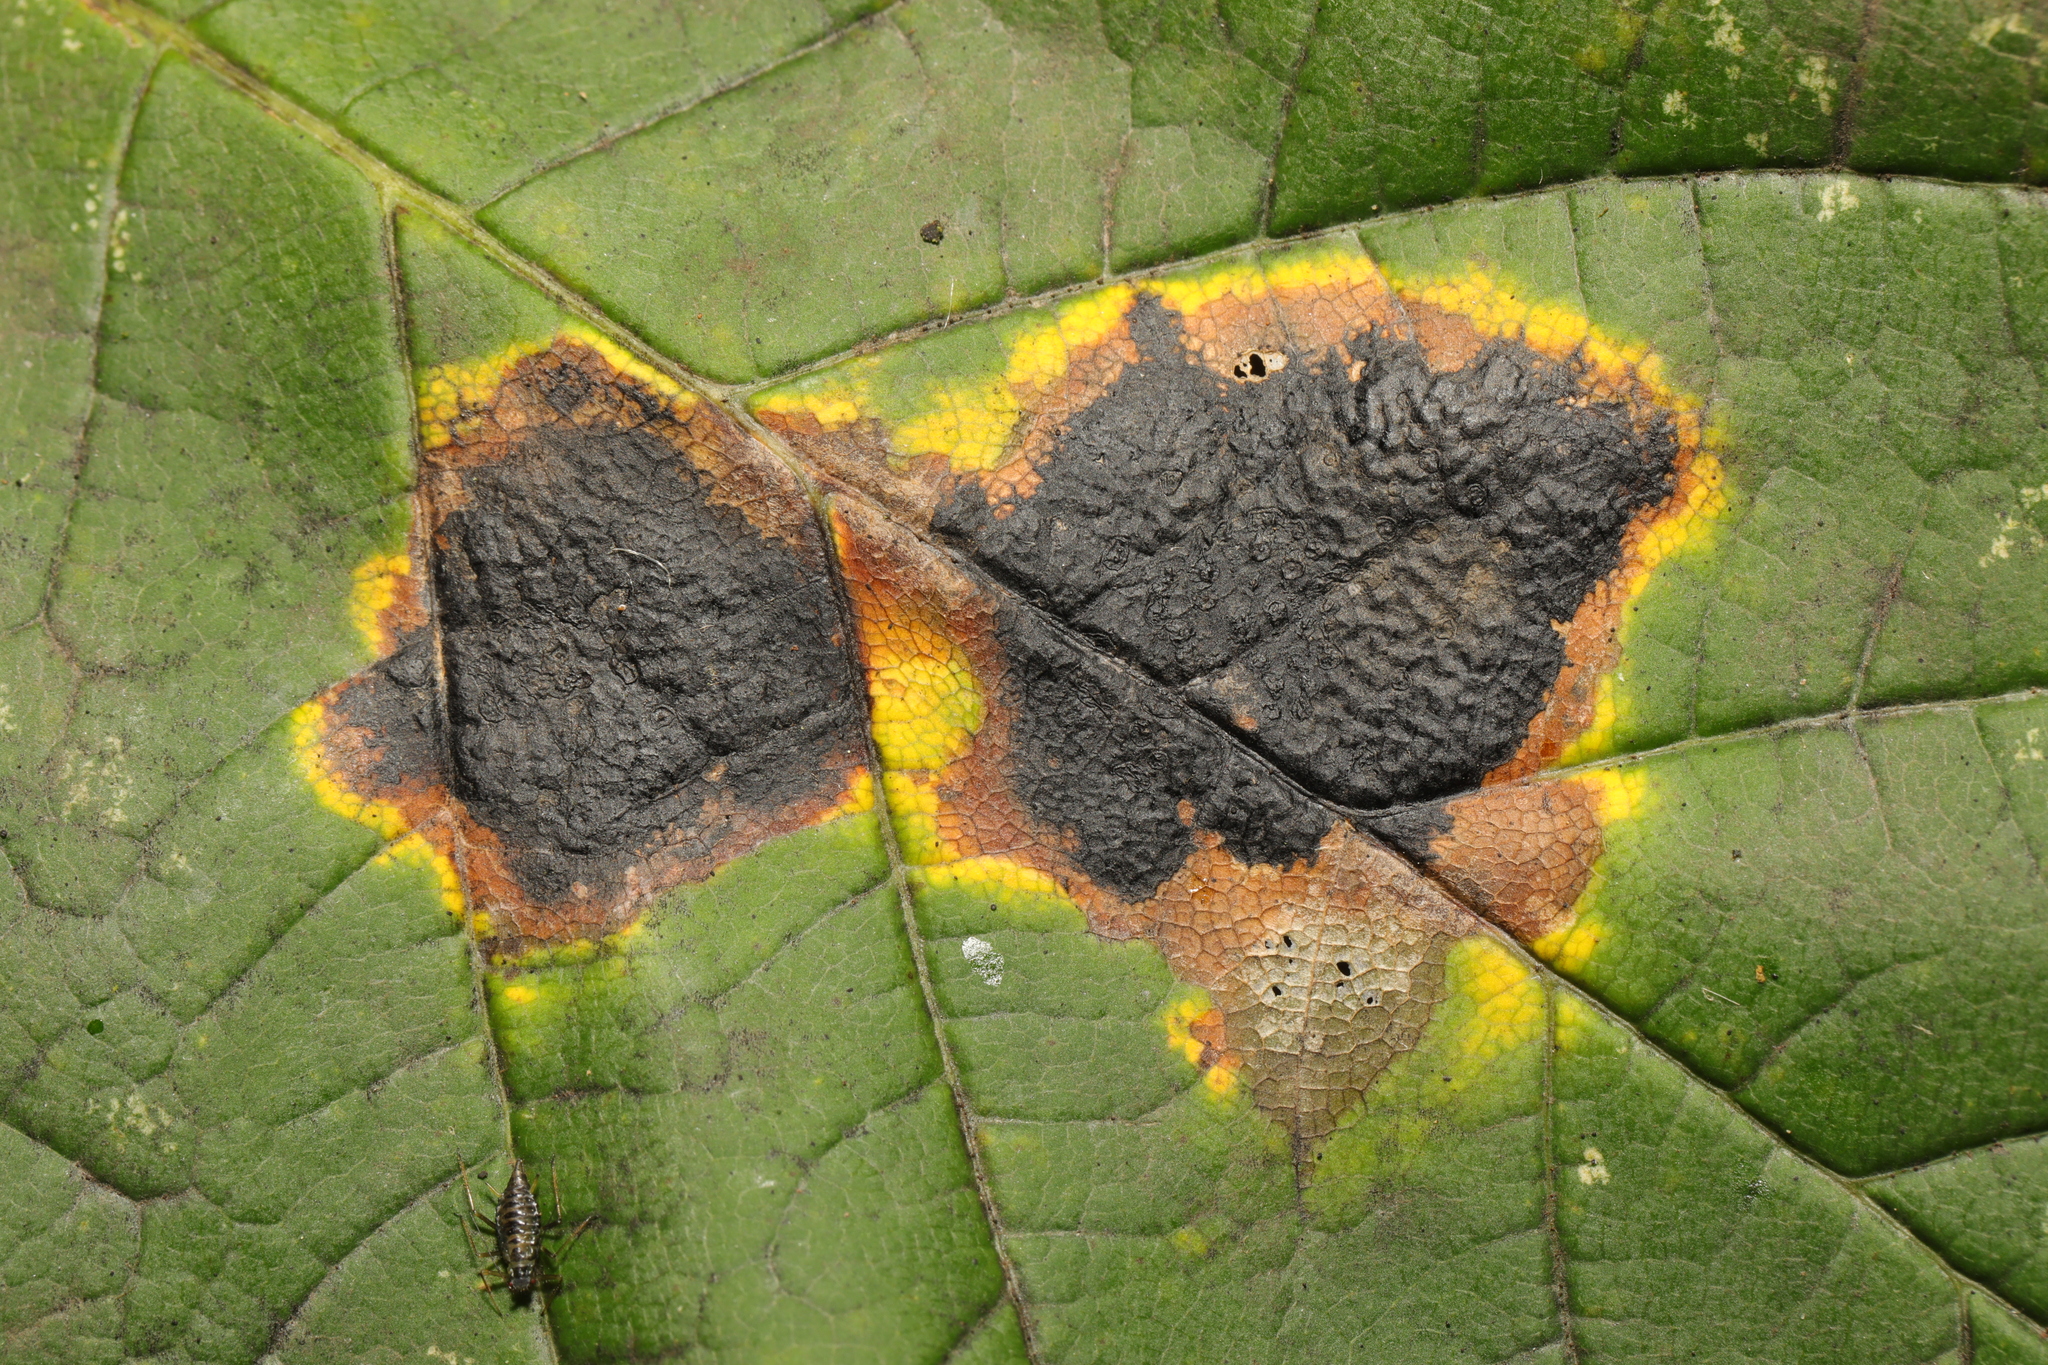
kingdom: Fungi
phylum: Ascomycota
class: Leotiomycetes
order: Rhytismatales
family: Rhytismataceae
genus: Rhytisma
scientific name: Rhytisma acerinum
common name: European tar spot
